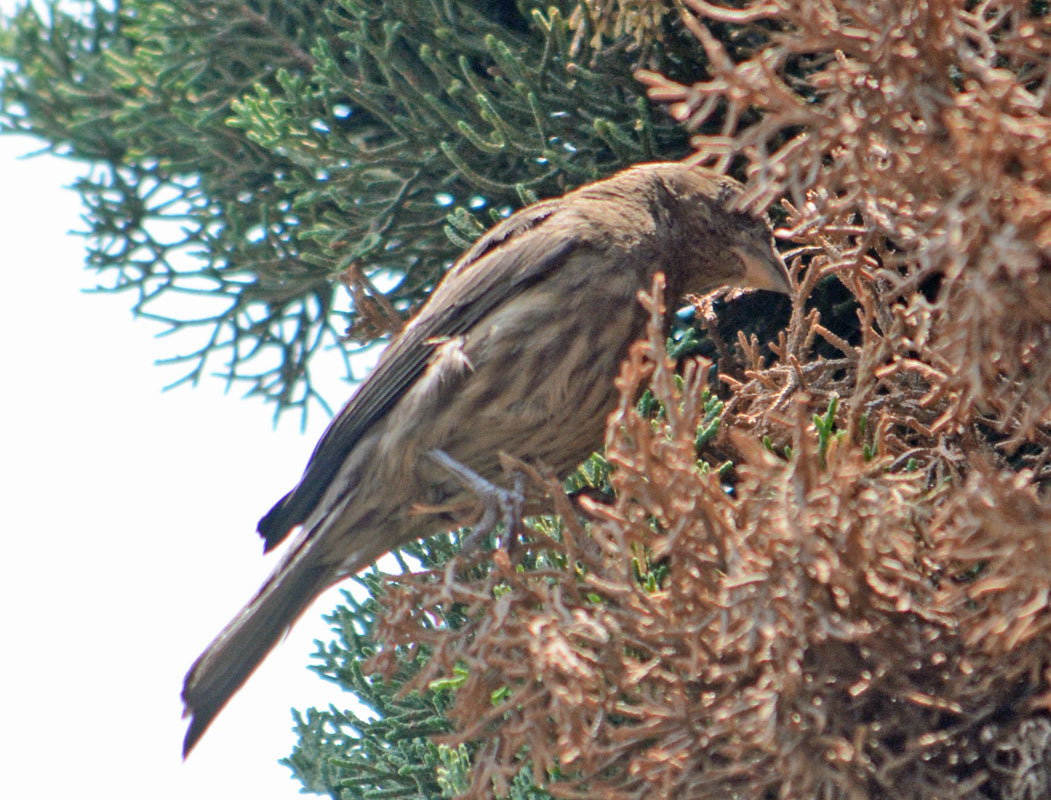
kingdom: Animalia
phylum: Chordata
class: Aves
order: Passeriformes
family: Fringillidae
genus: Haemorhous
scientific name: Haemorhous mexicanus
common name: House finch
